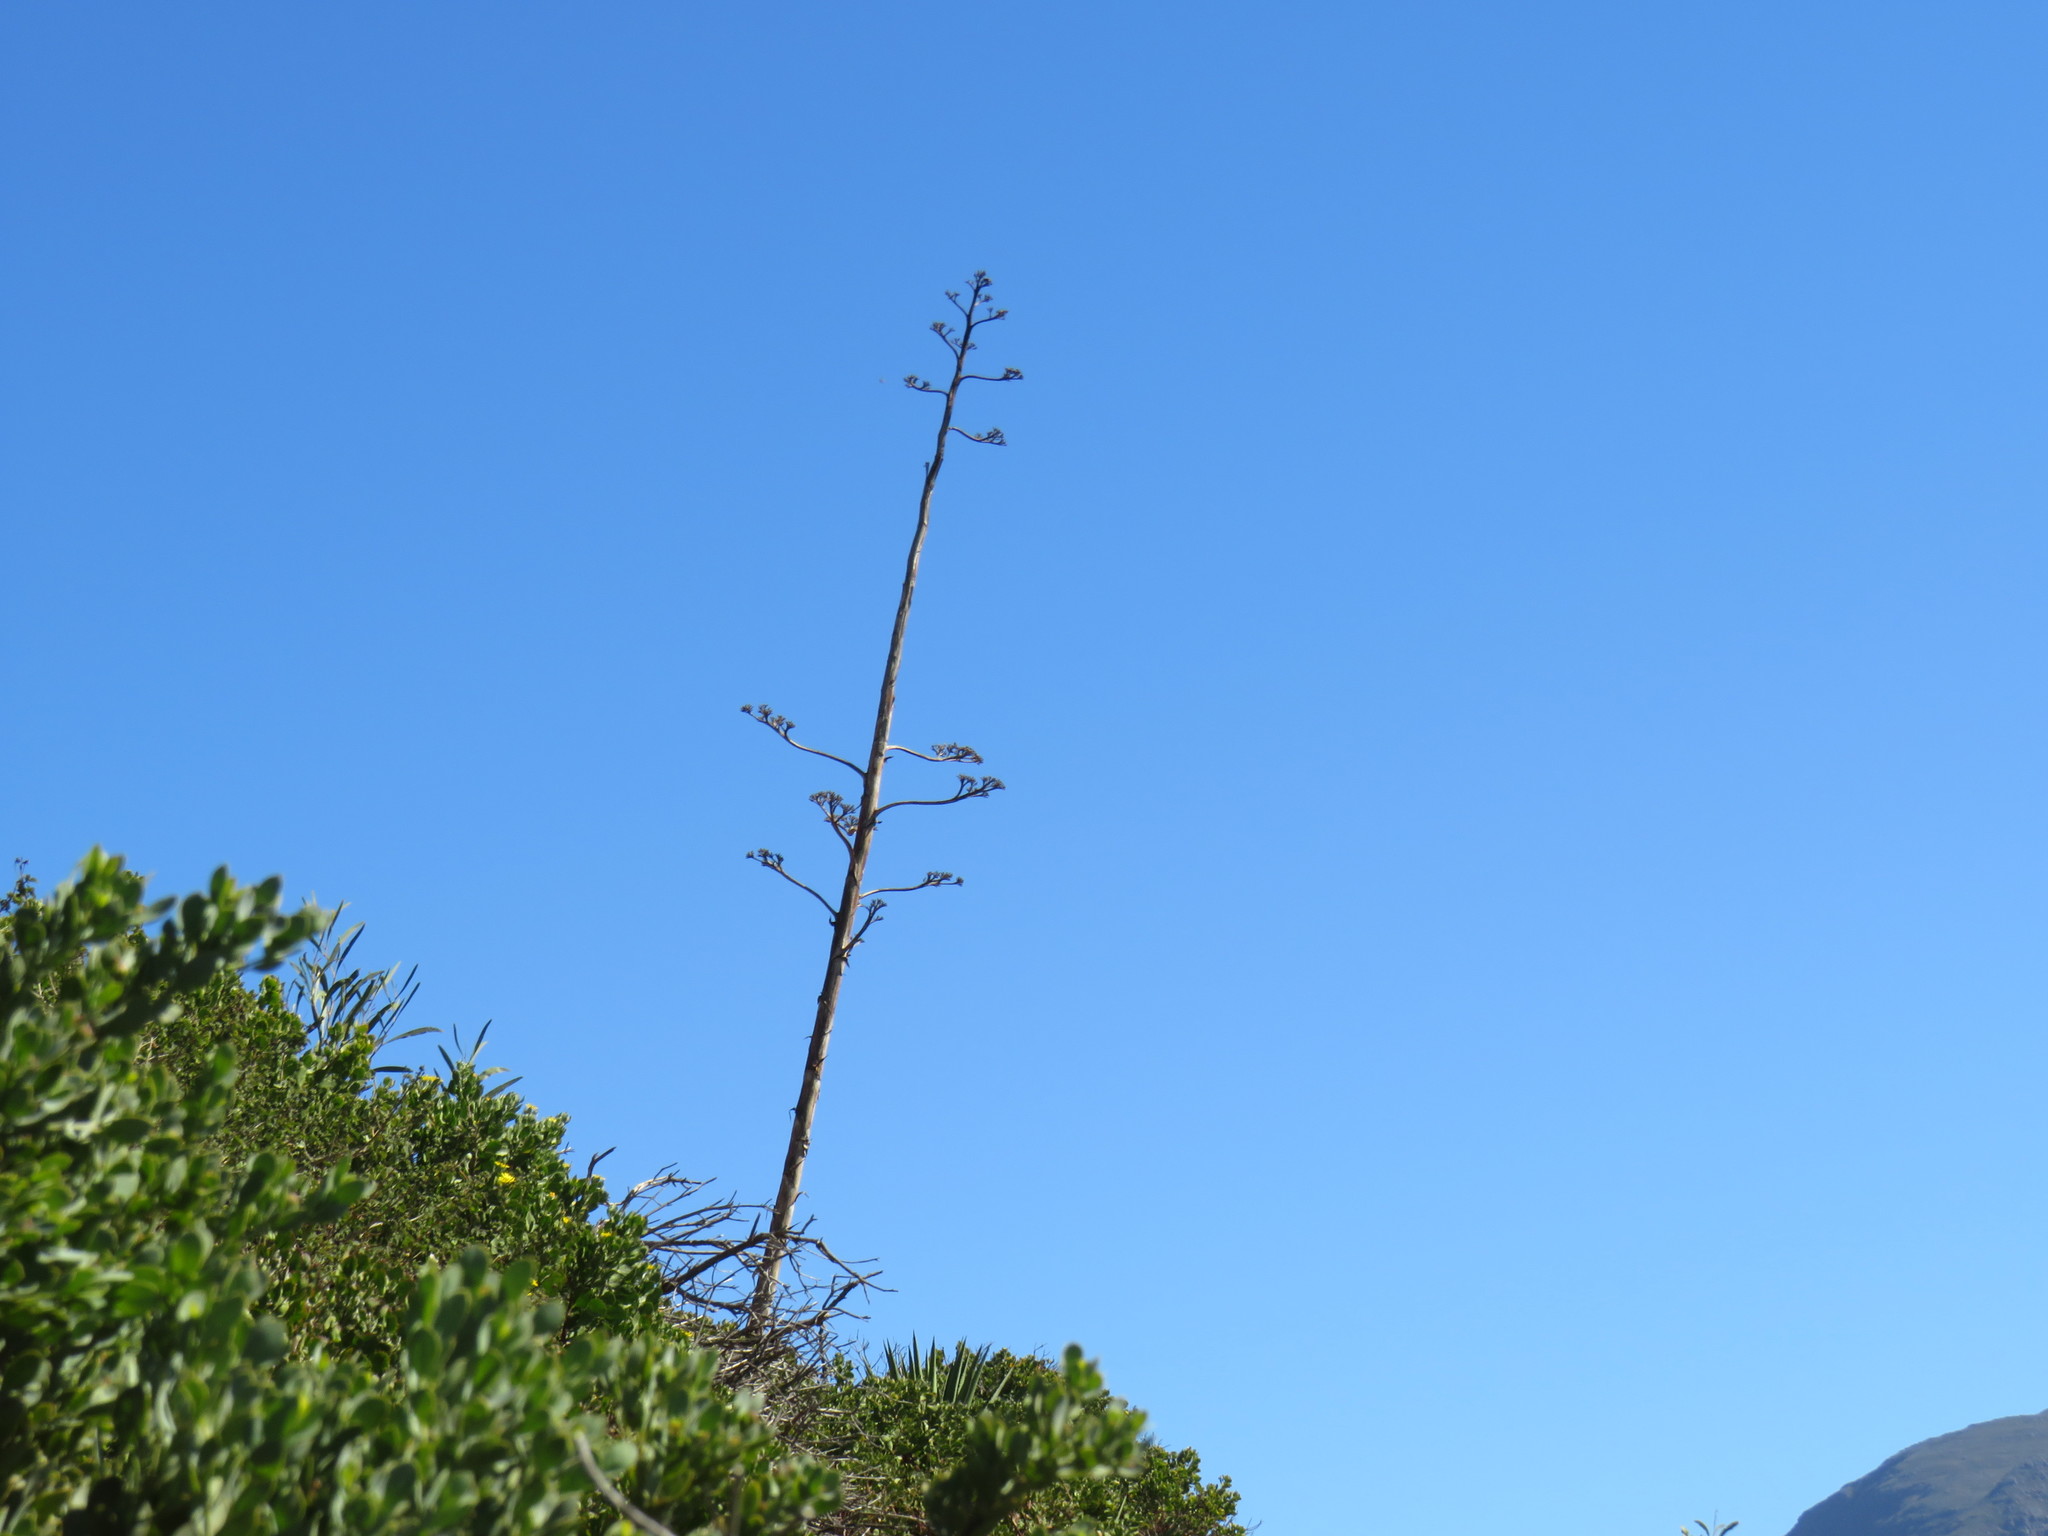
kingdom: Plantae
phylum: Tracheophyta
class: Liliopsida
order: Asparagales
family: Asparagaceae
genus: Agave
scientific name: Agave americana
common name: Centuryplant
